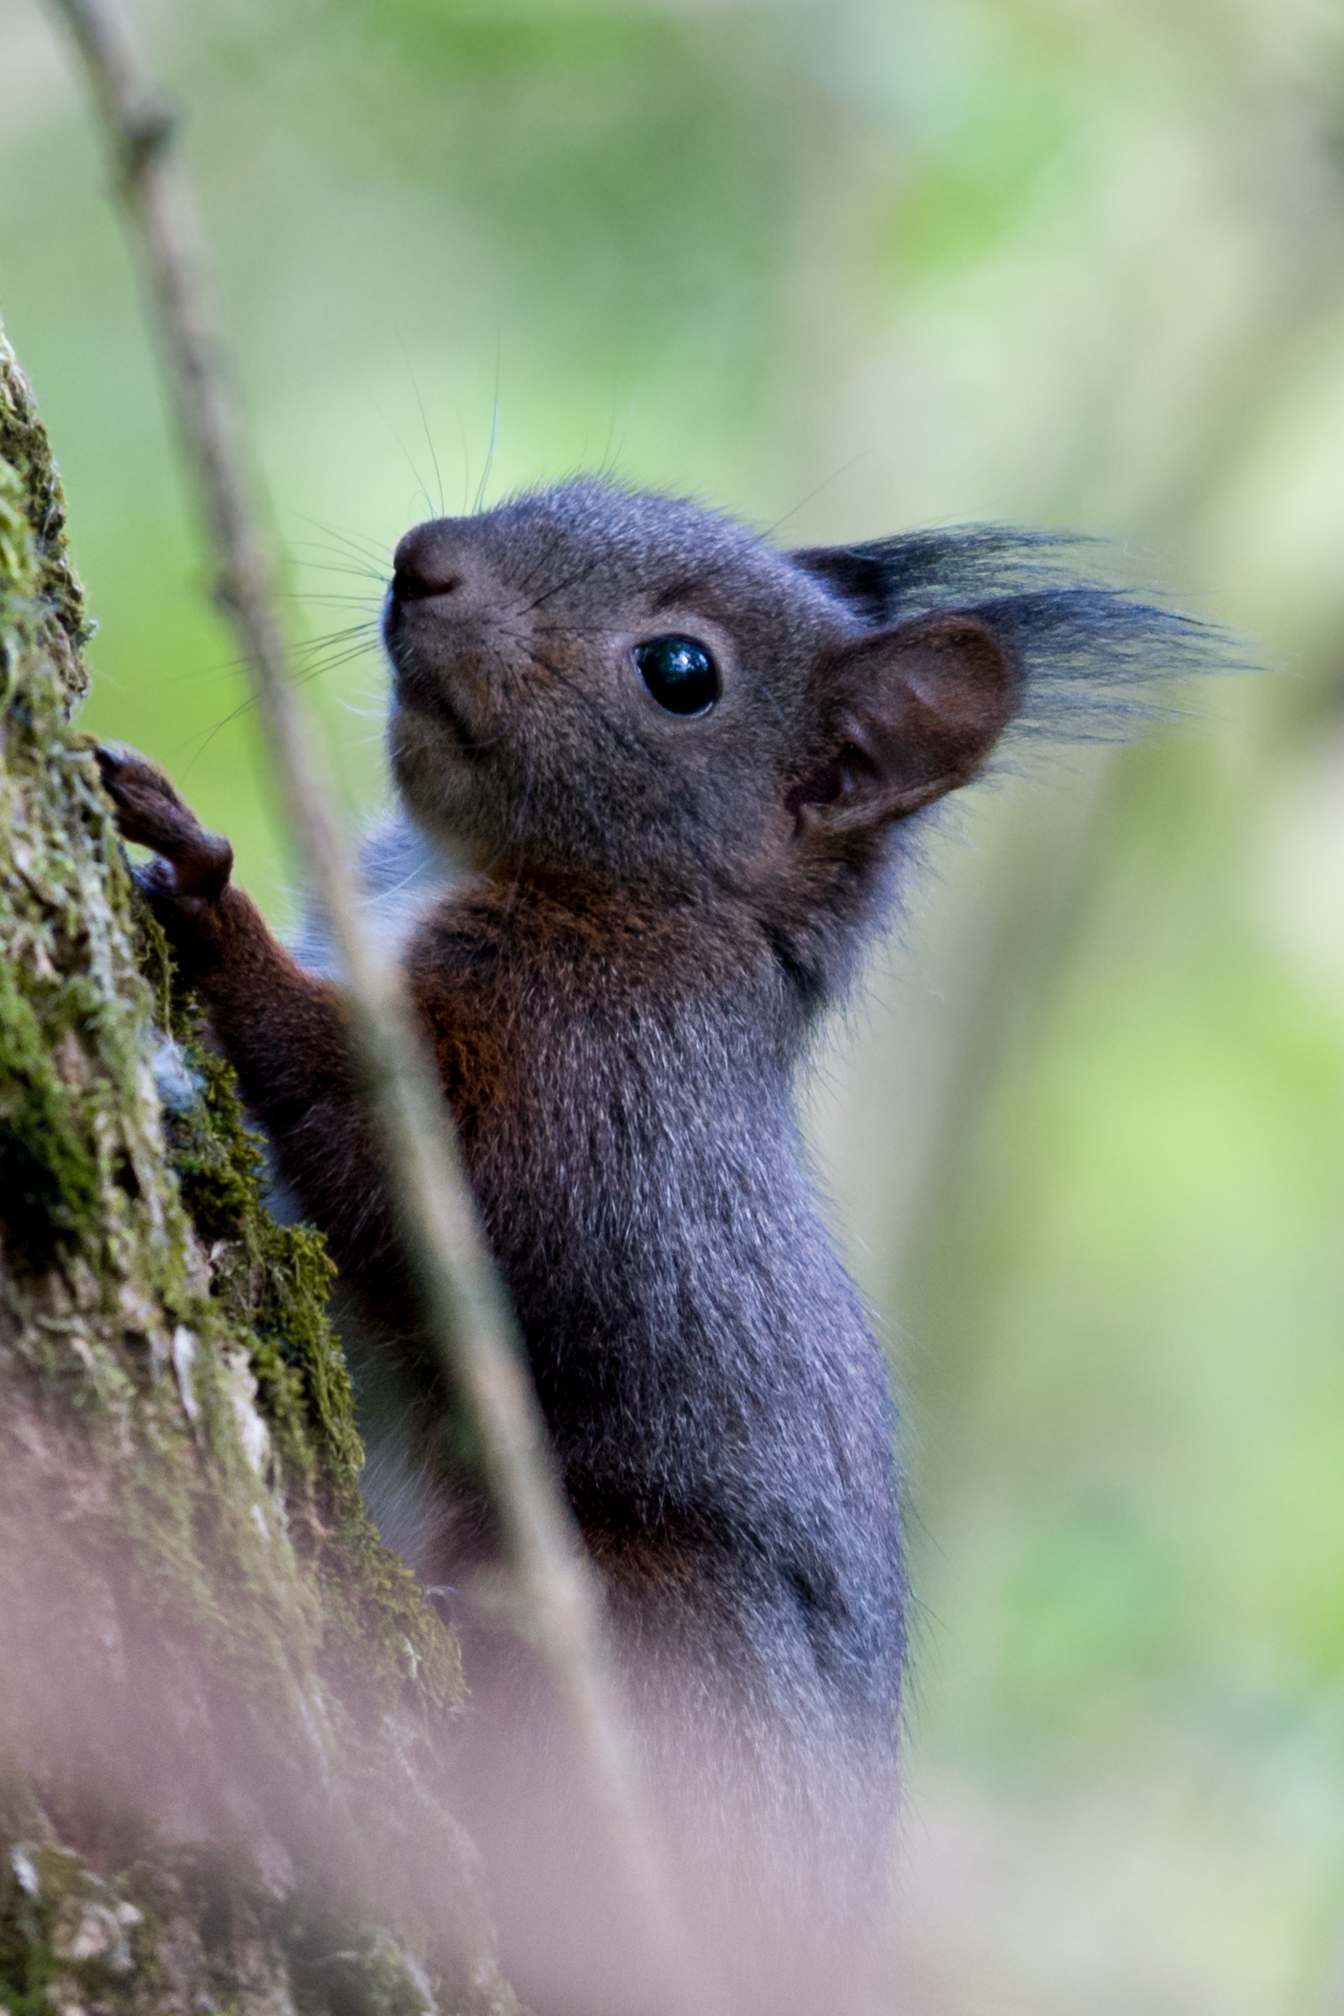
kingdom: Animalia
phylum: Chordata
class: Mammalia
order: Rodentia
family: Sciuridae
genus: Sciurus
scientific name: Sciurus vulgaris
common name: Eurasian red squirrel
